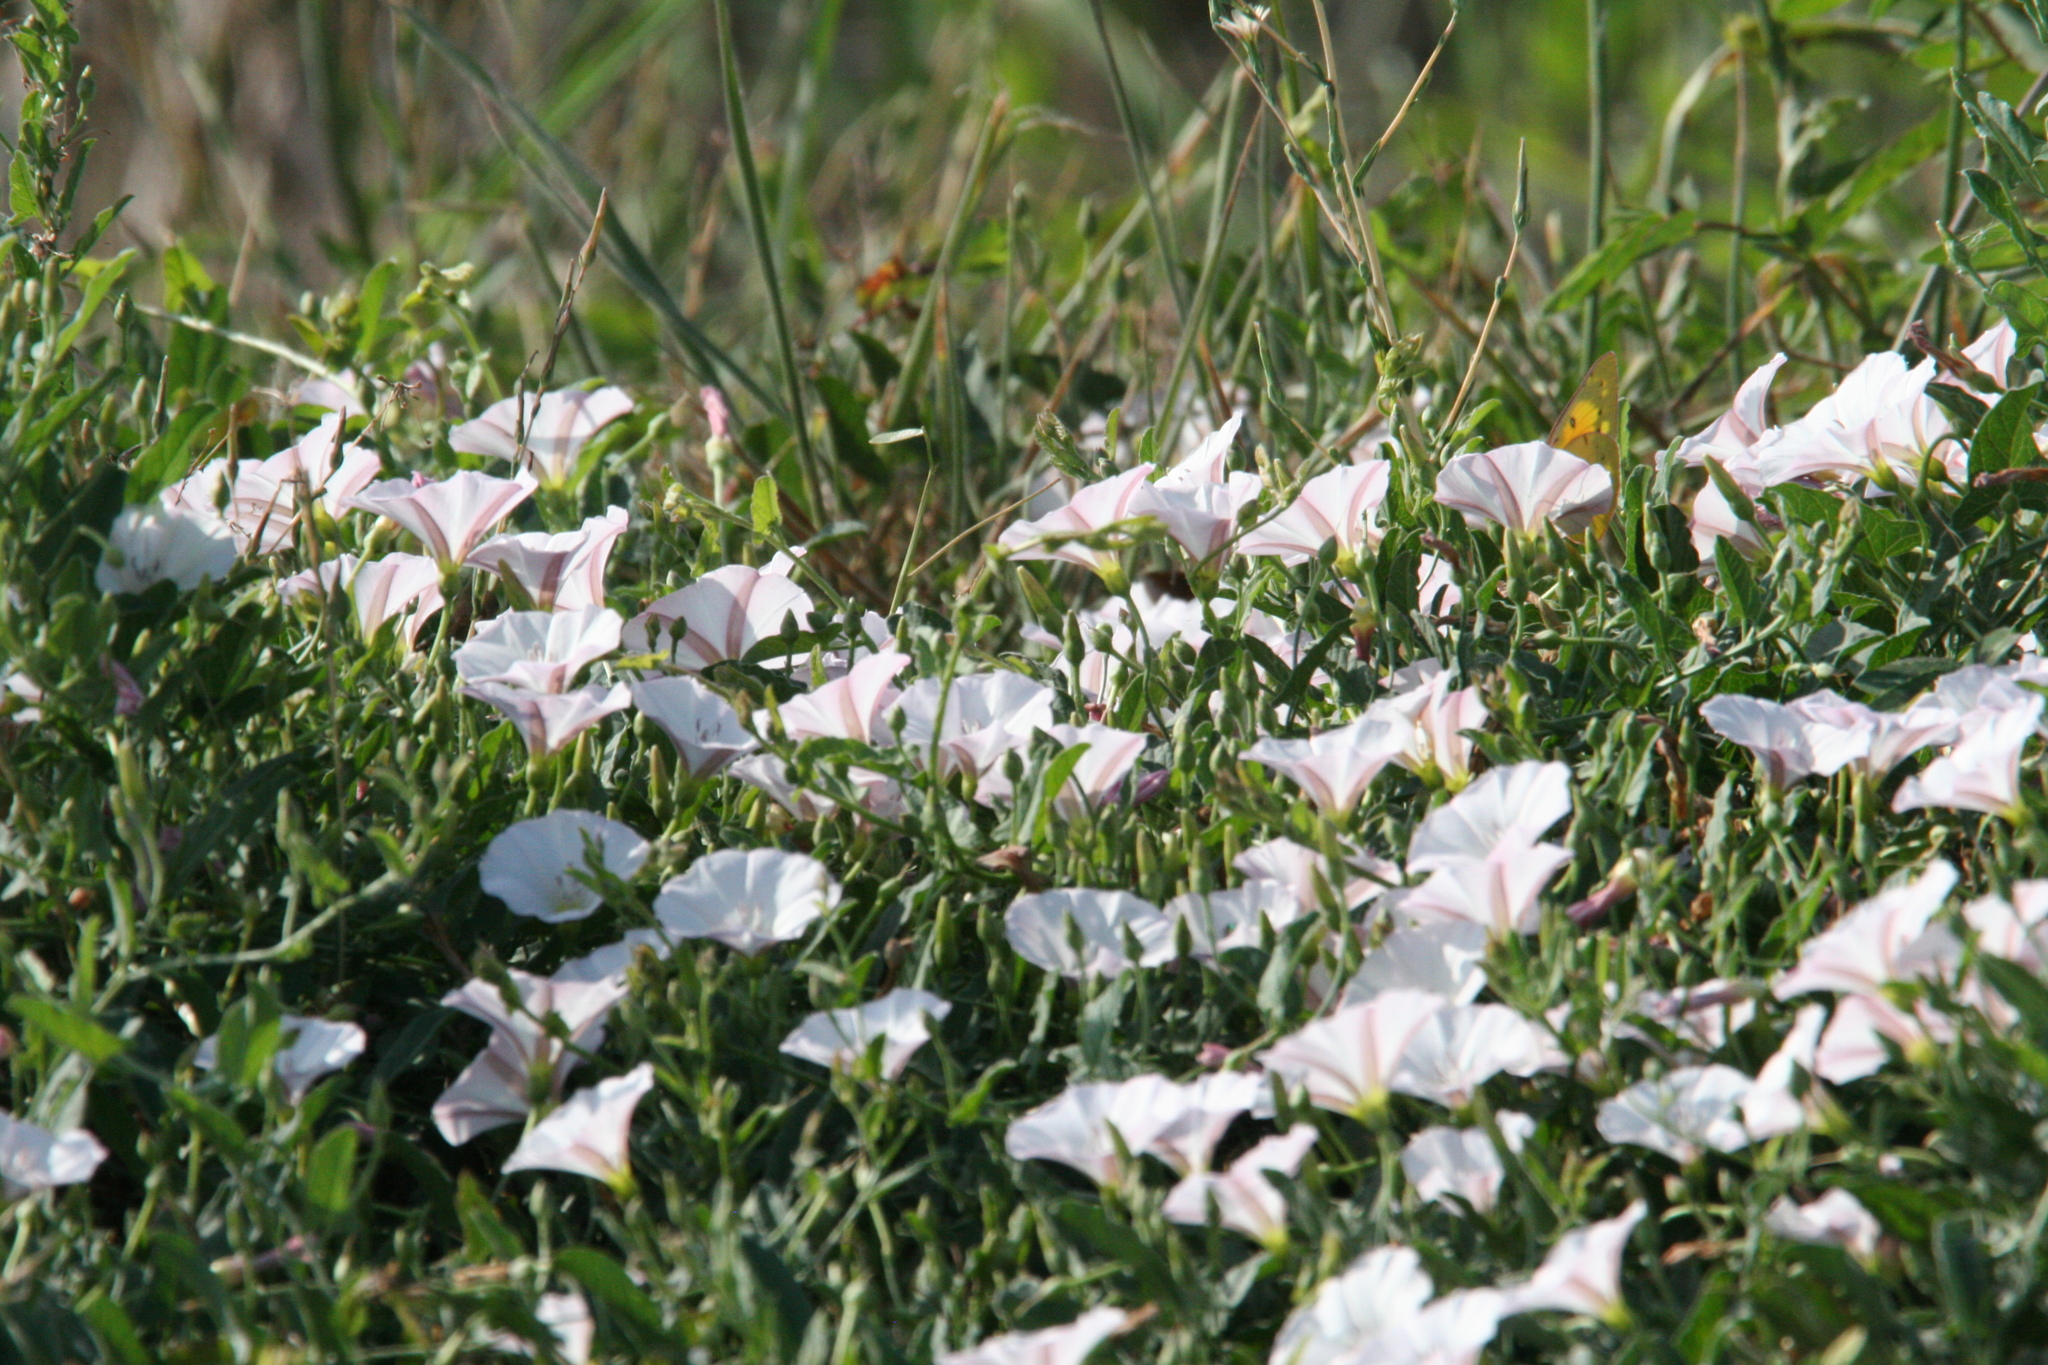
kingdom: Plantae
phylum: Tracheophyta
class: Magnoliopsida
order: Solanales
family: Convolvulaceae
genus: Convolvulus
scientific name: Convolvulus arvensis
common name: Field bindweed
